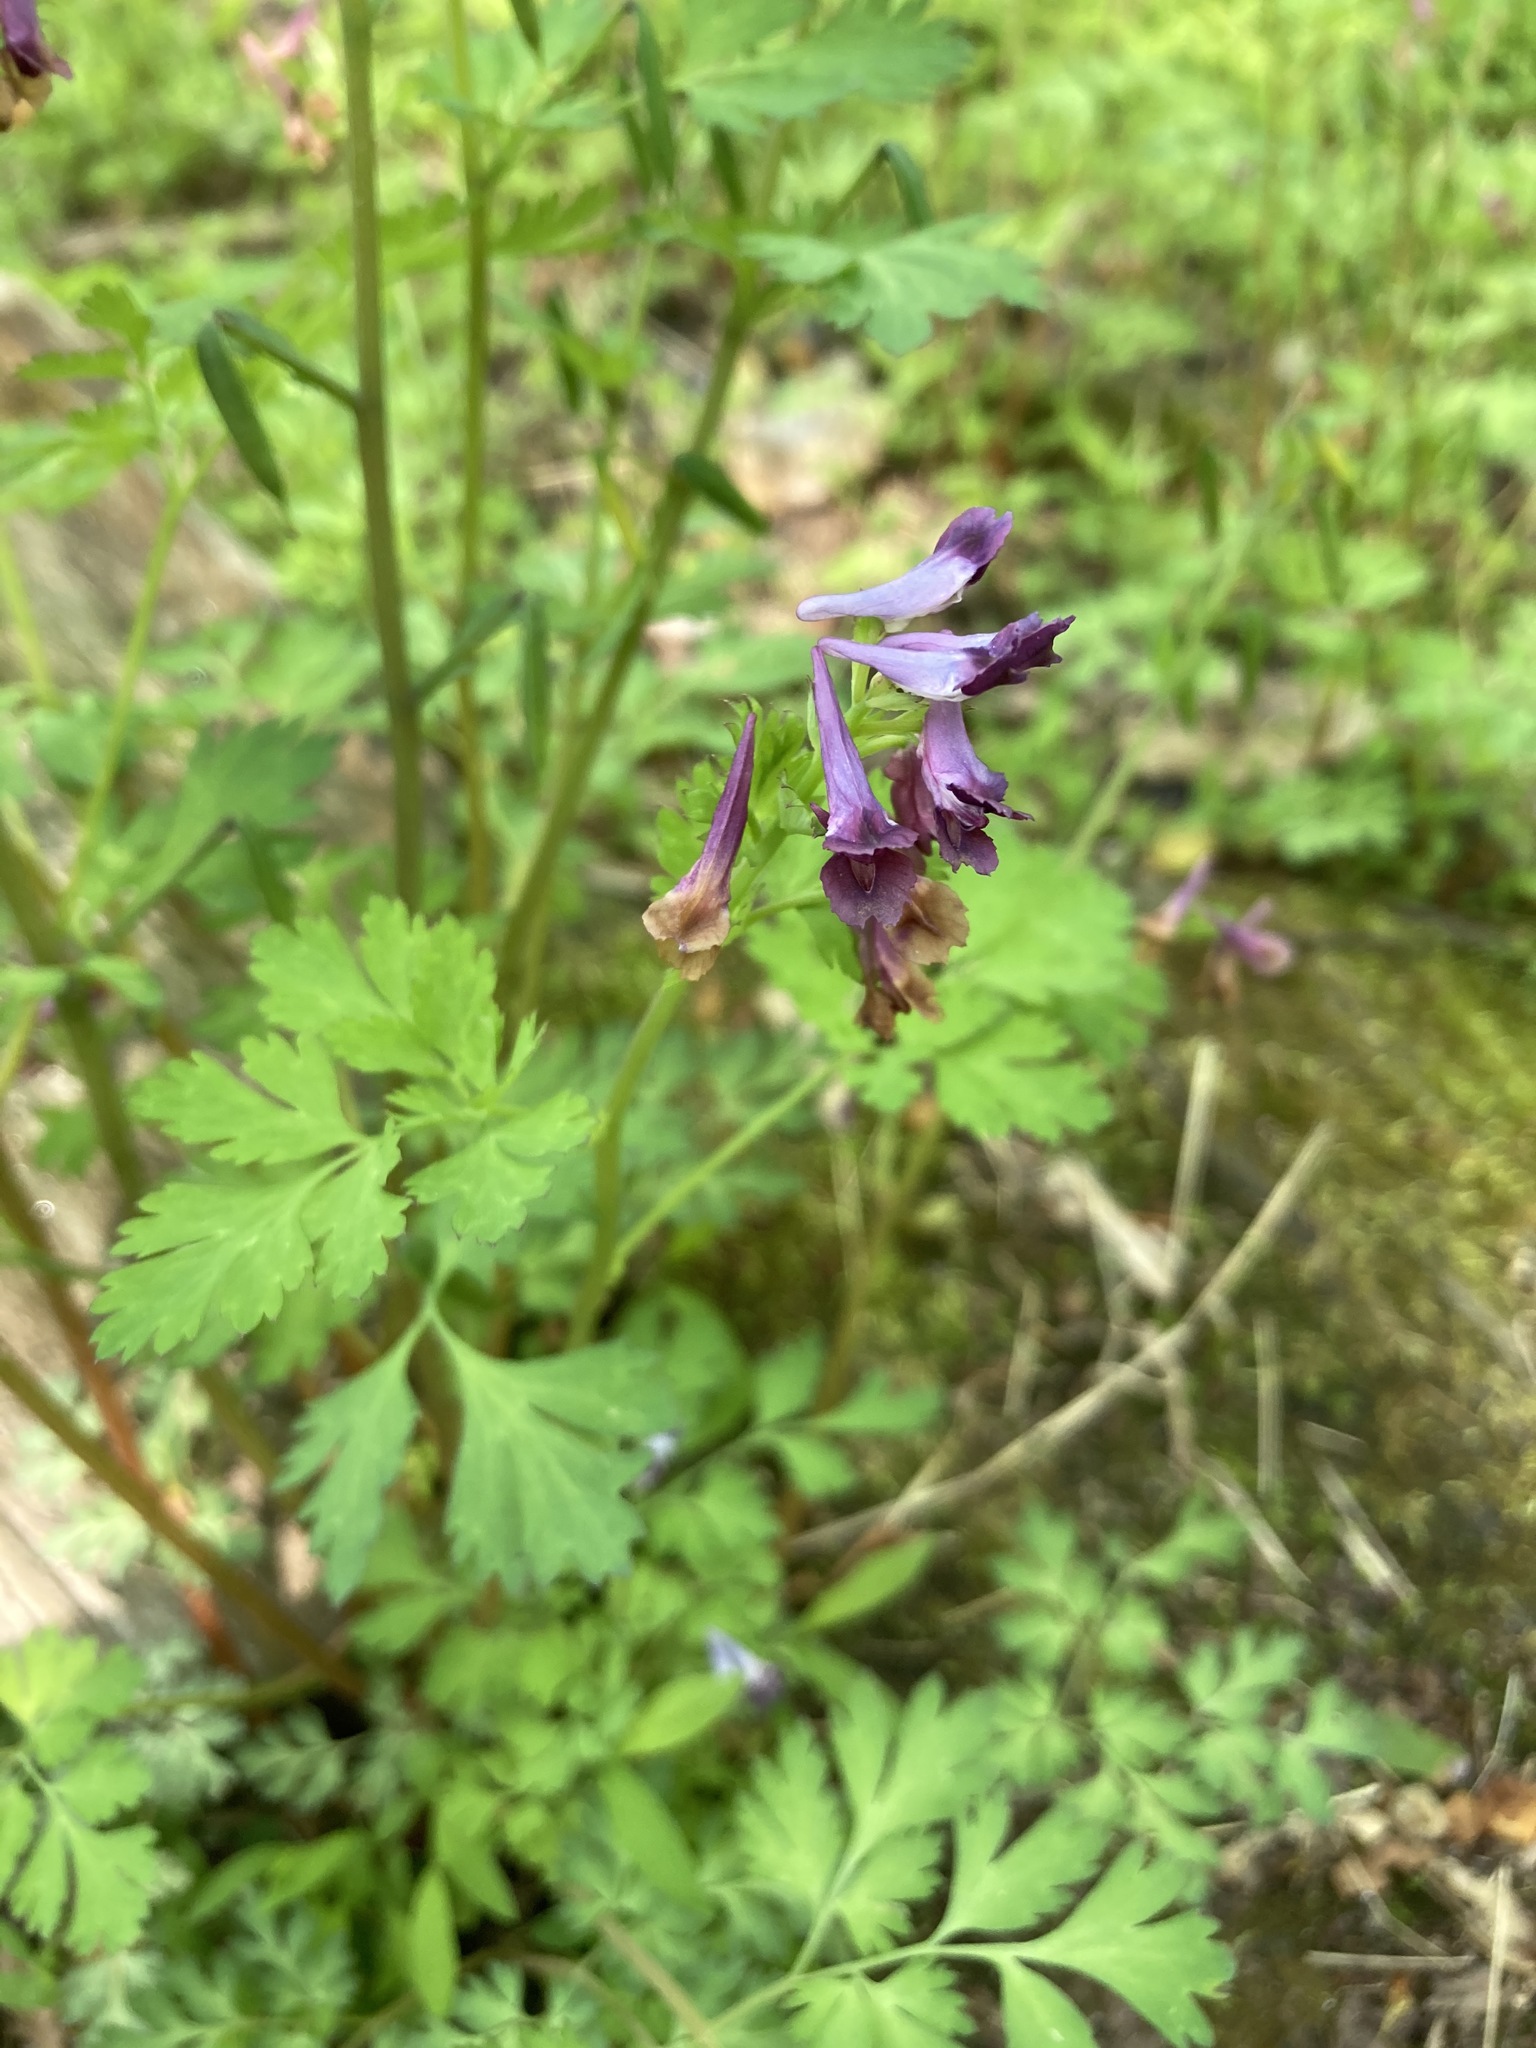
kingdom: Plantae
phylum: Tracheophyta
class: Magnoliopsida
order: Ranunculales
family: Papaveraceae
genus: Corydalis
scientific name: Corydalis incisa
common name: Incised fumewort
